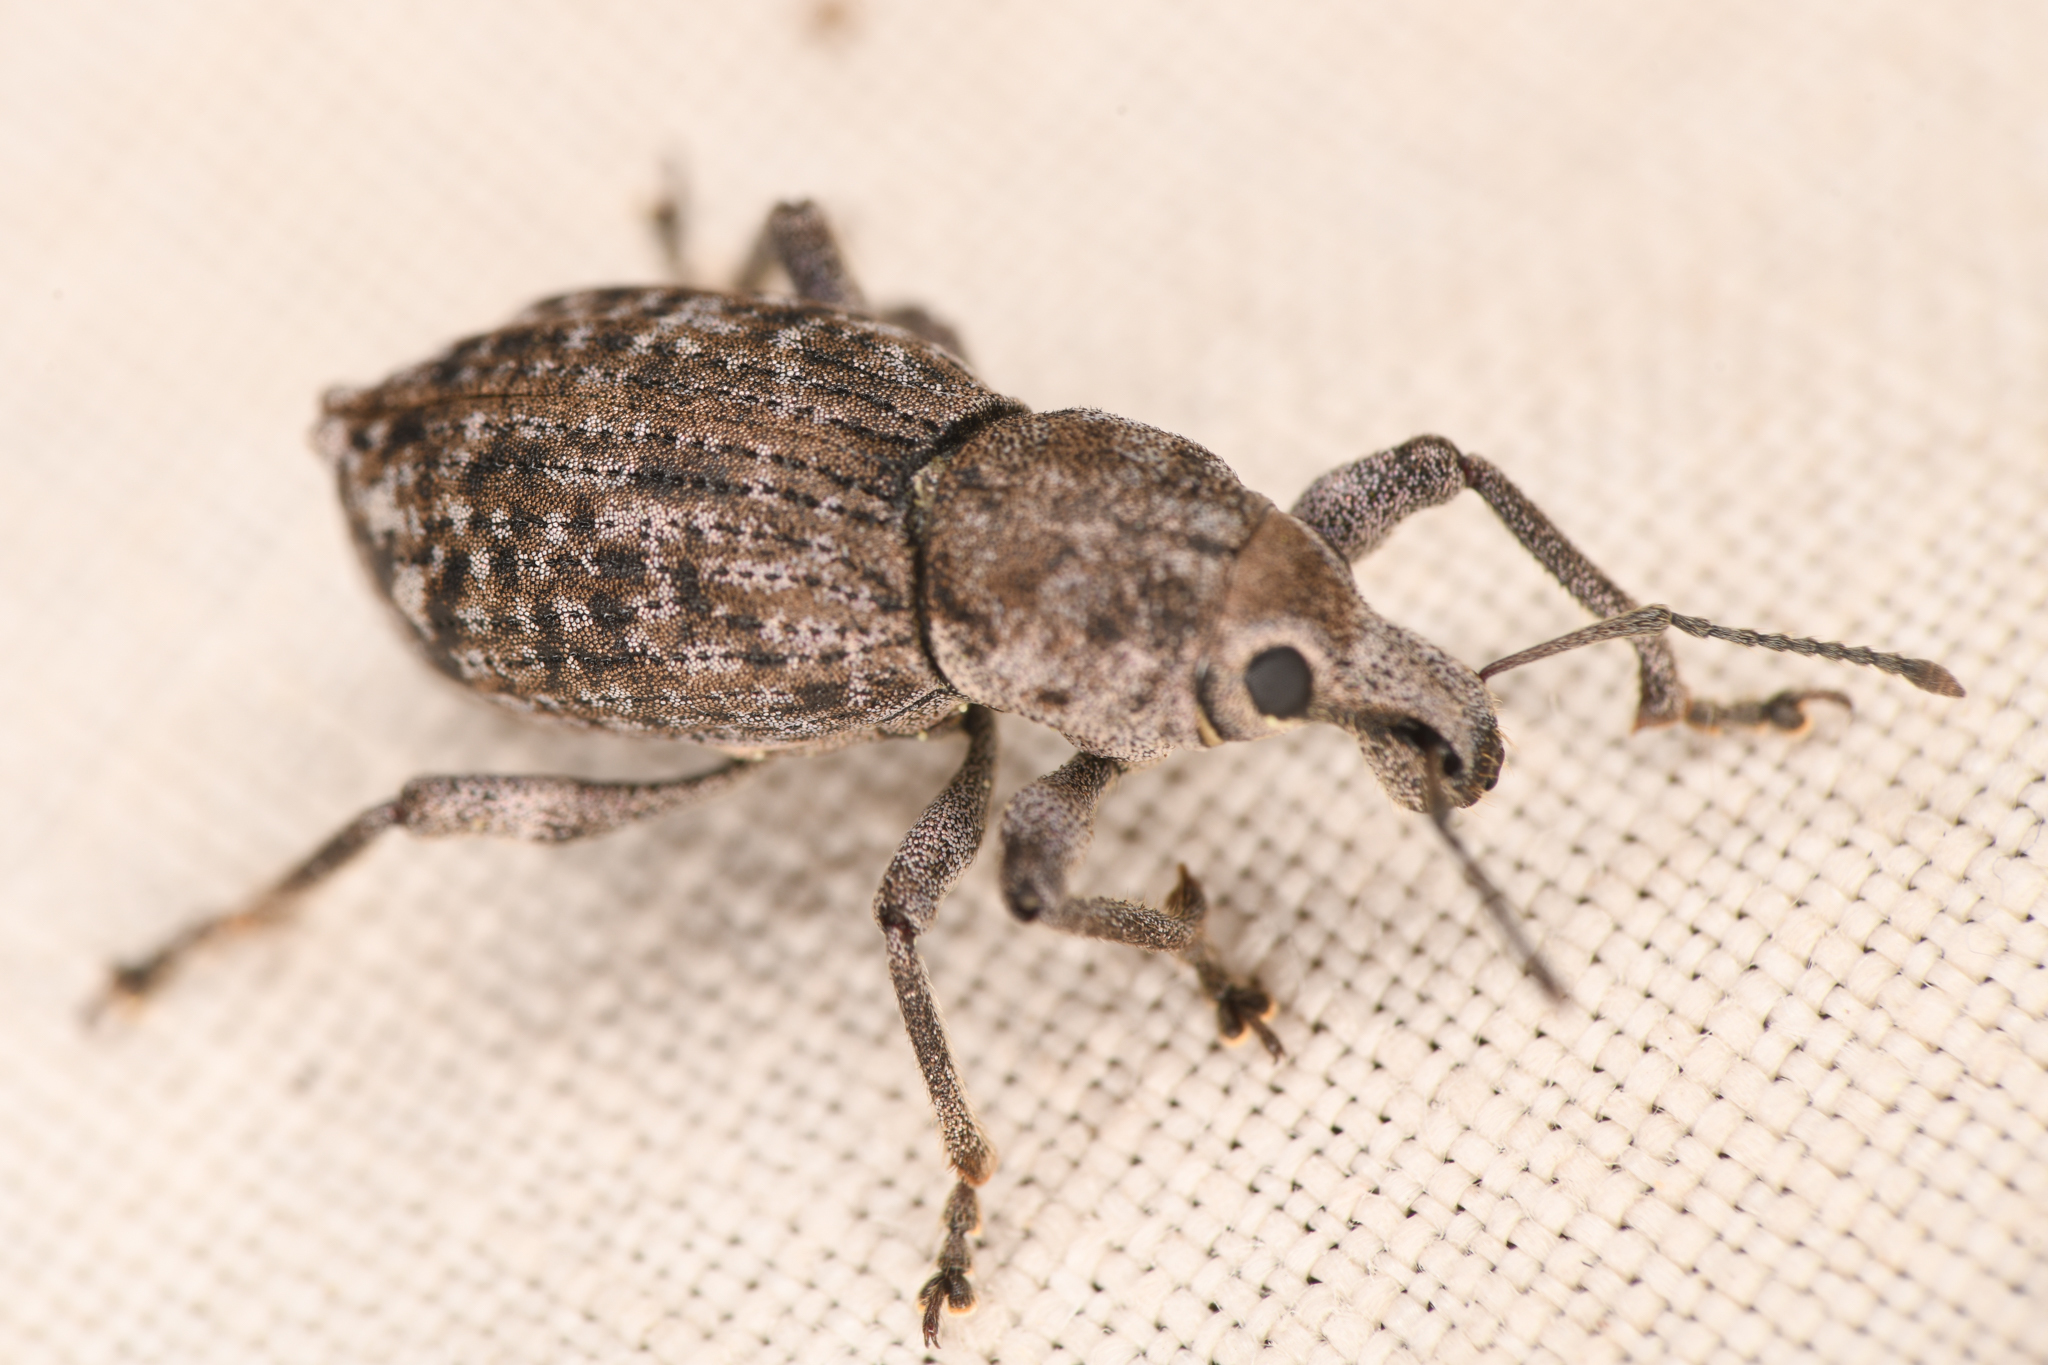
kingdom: Animalia
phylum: Arthropoda
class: Insecta
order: Coleoptera
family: Curculionidae
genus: Dyslobus
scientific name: Dyslobus verrucifer
